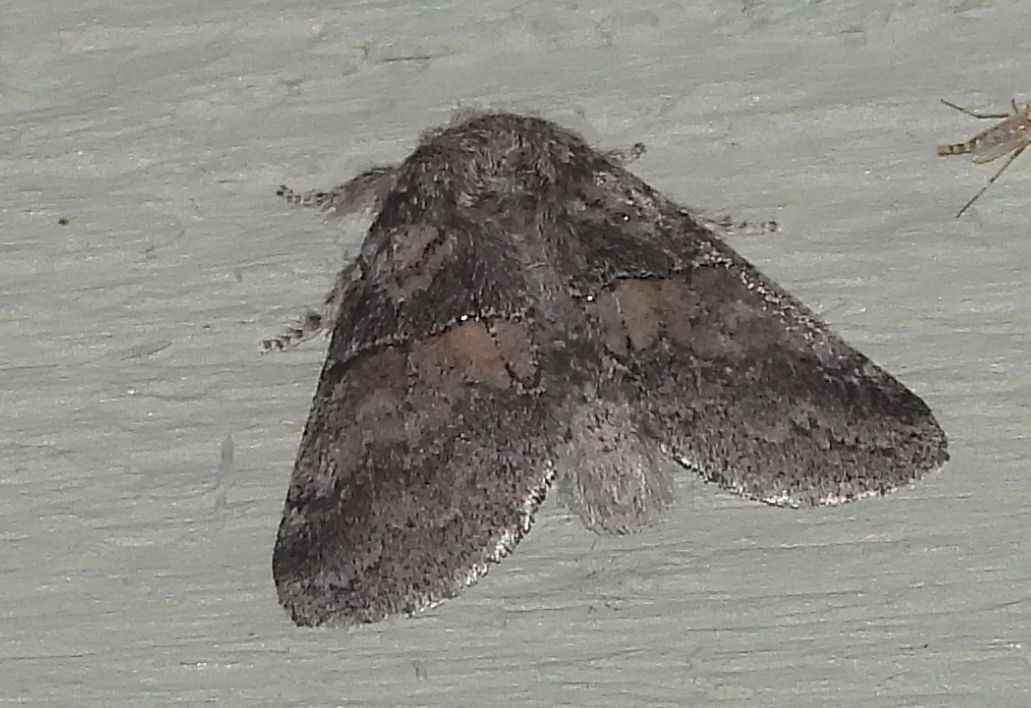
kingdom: Animalia
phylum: Arthropoda
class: Insecta
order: Lepidoptera
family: Notodontidae
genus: Gluphisia
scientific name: Gluphisia septentrionis
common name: Common gluphisia
